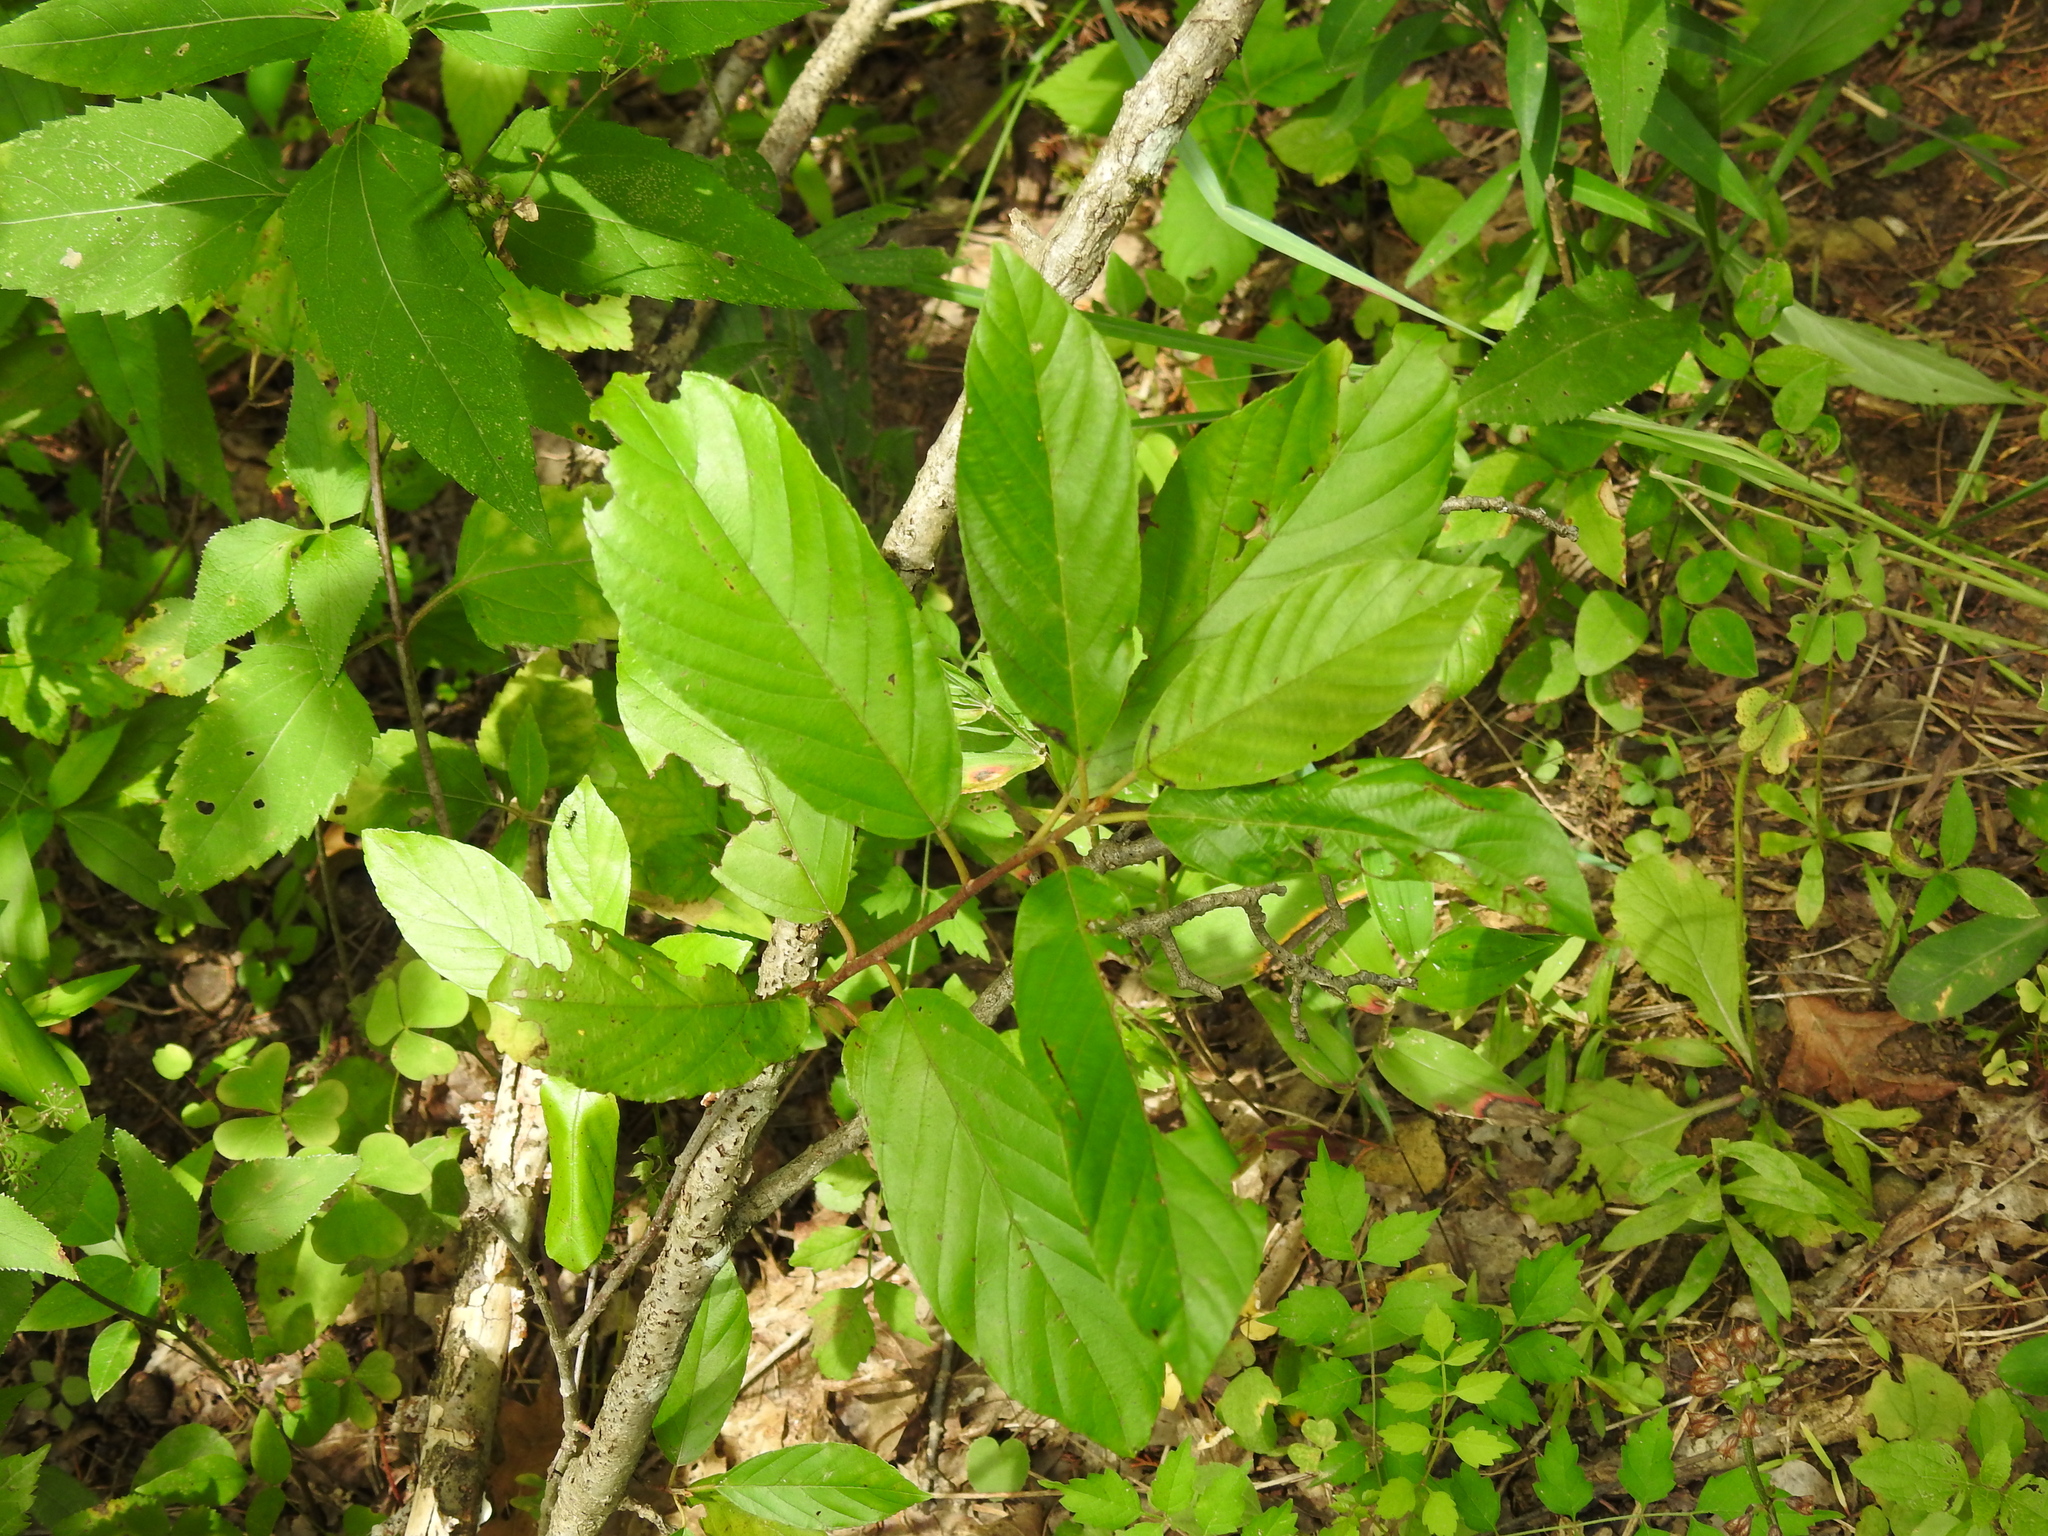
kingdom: Plantae
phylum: Tracheophyta
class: Magnoliopsida
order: Rosales
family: Rhamnaceae
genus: Frangula
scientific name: Frangula caroliniana
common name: Carolina buckthorn
